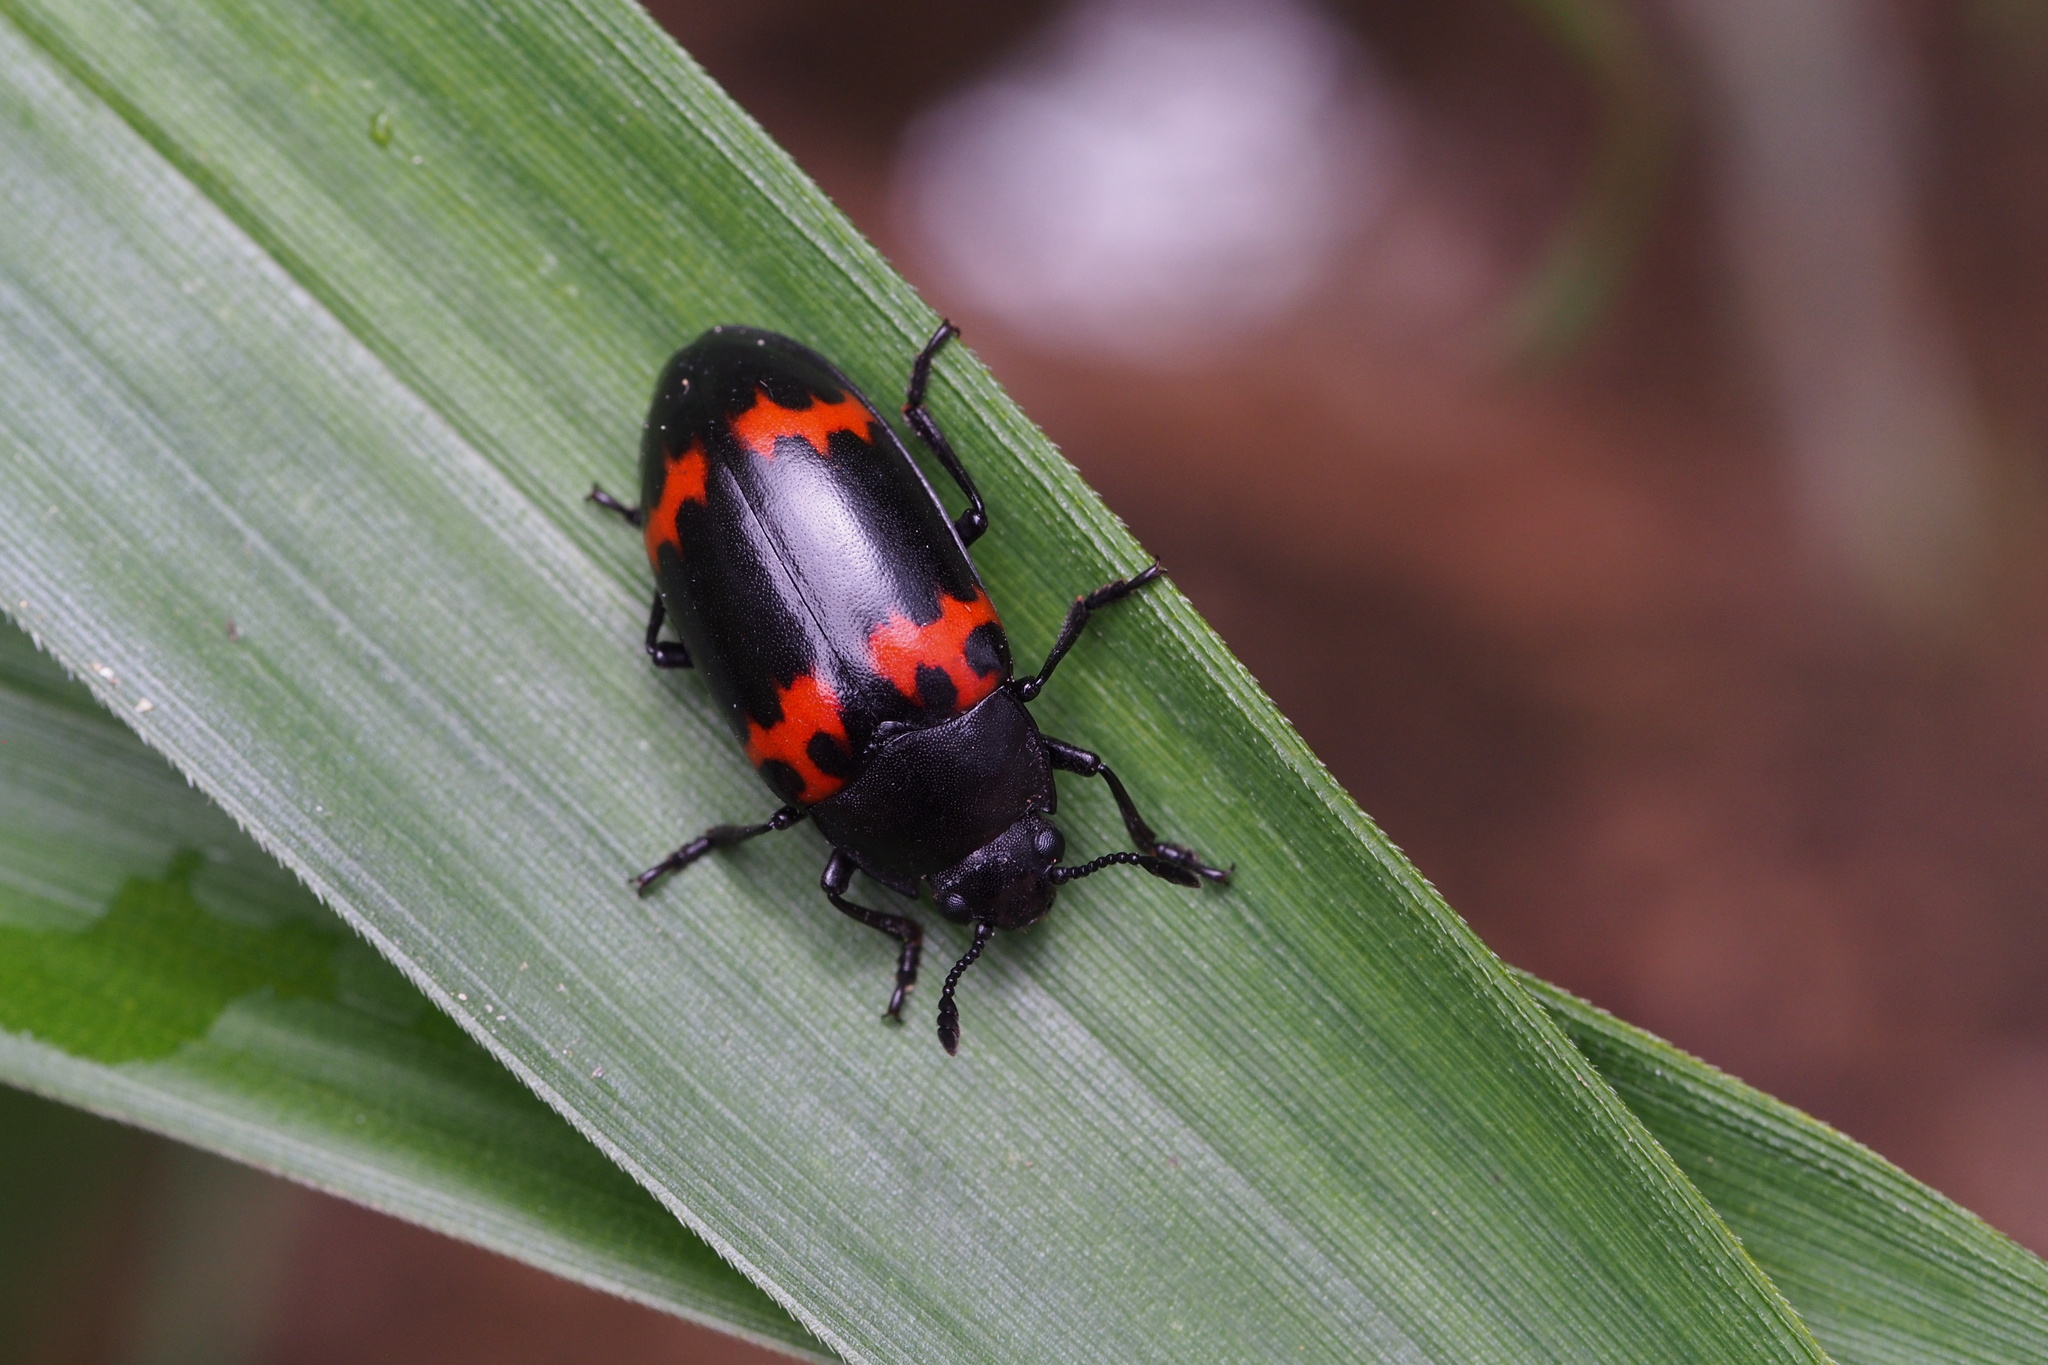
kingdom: Animalia
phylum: Arthropoda
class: Insecta
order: Coleoptera
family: Erotylidae
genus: Episcapha
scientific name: Episcapha morawitzi
